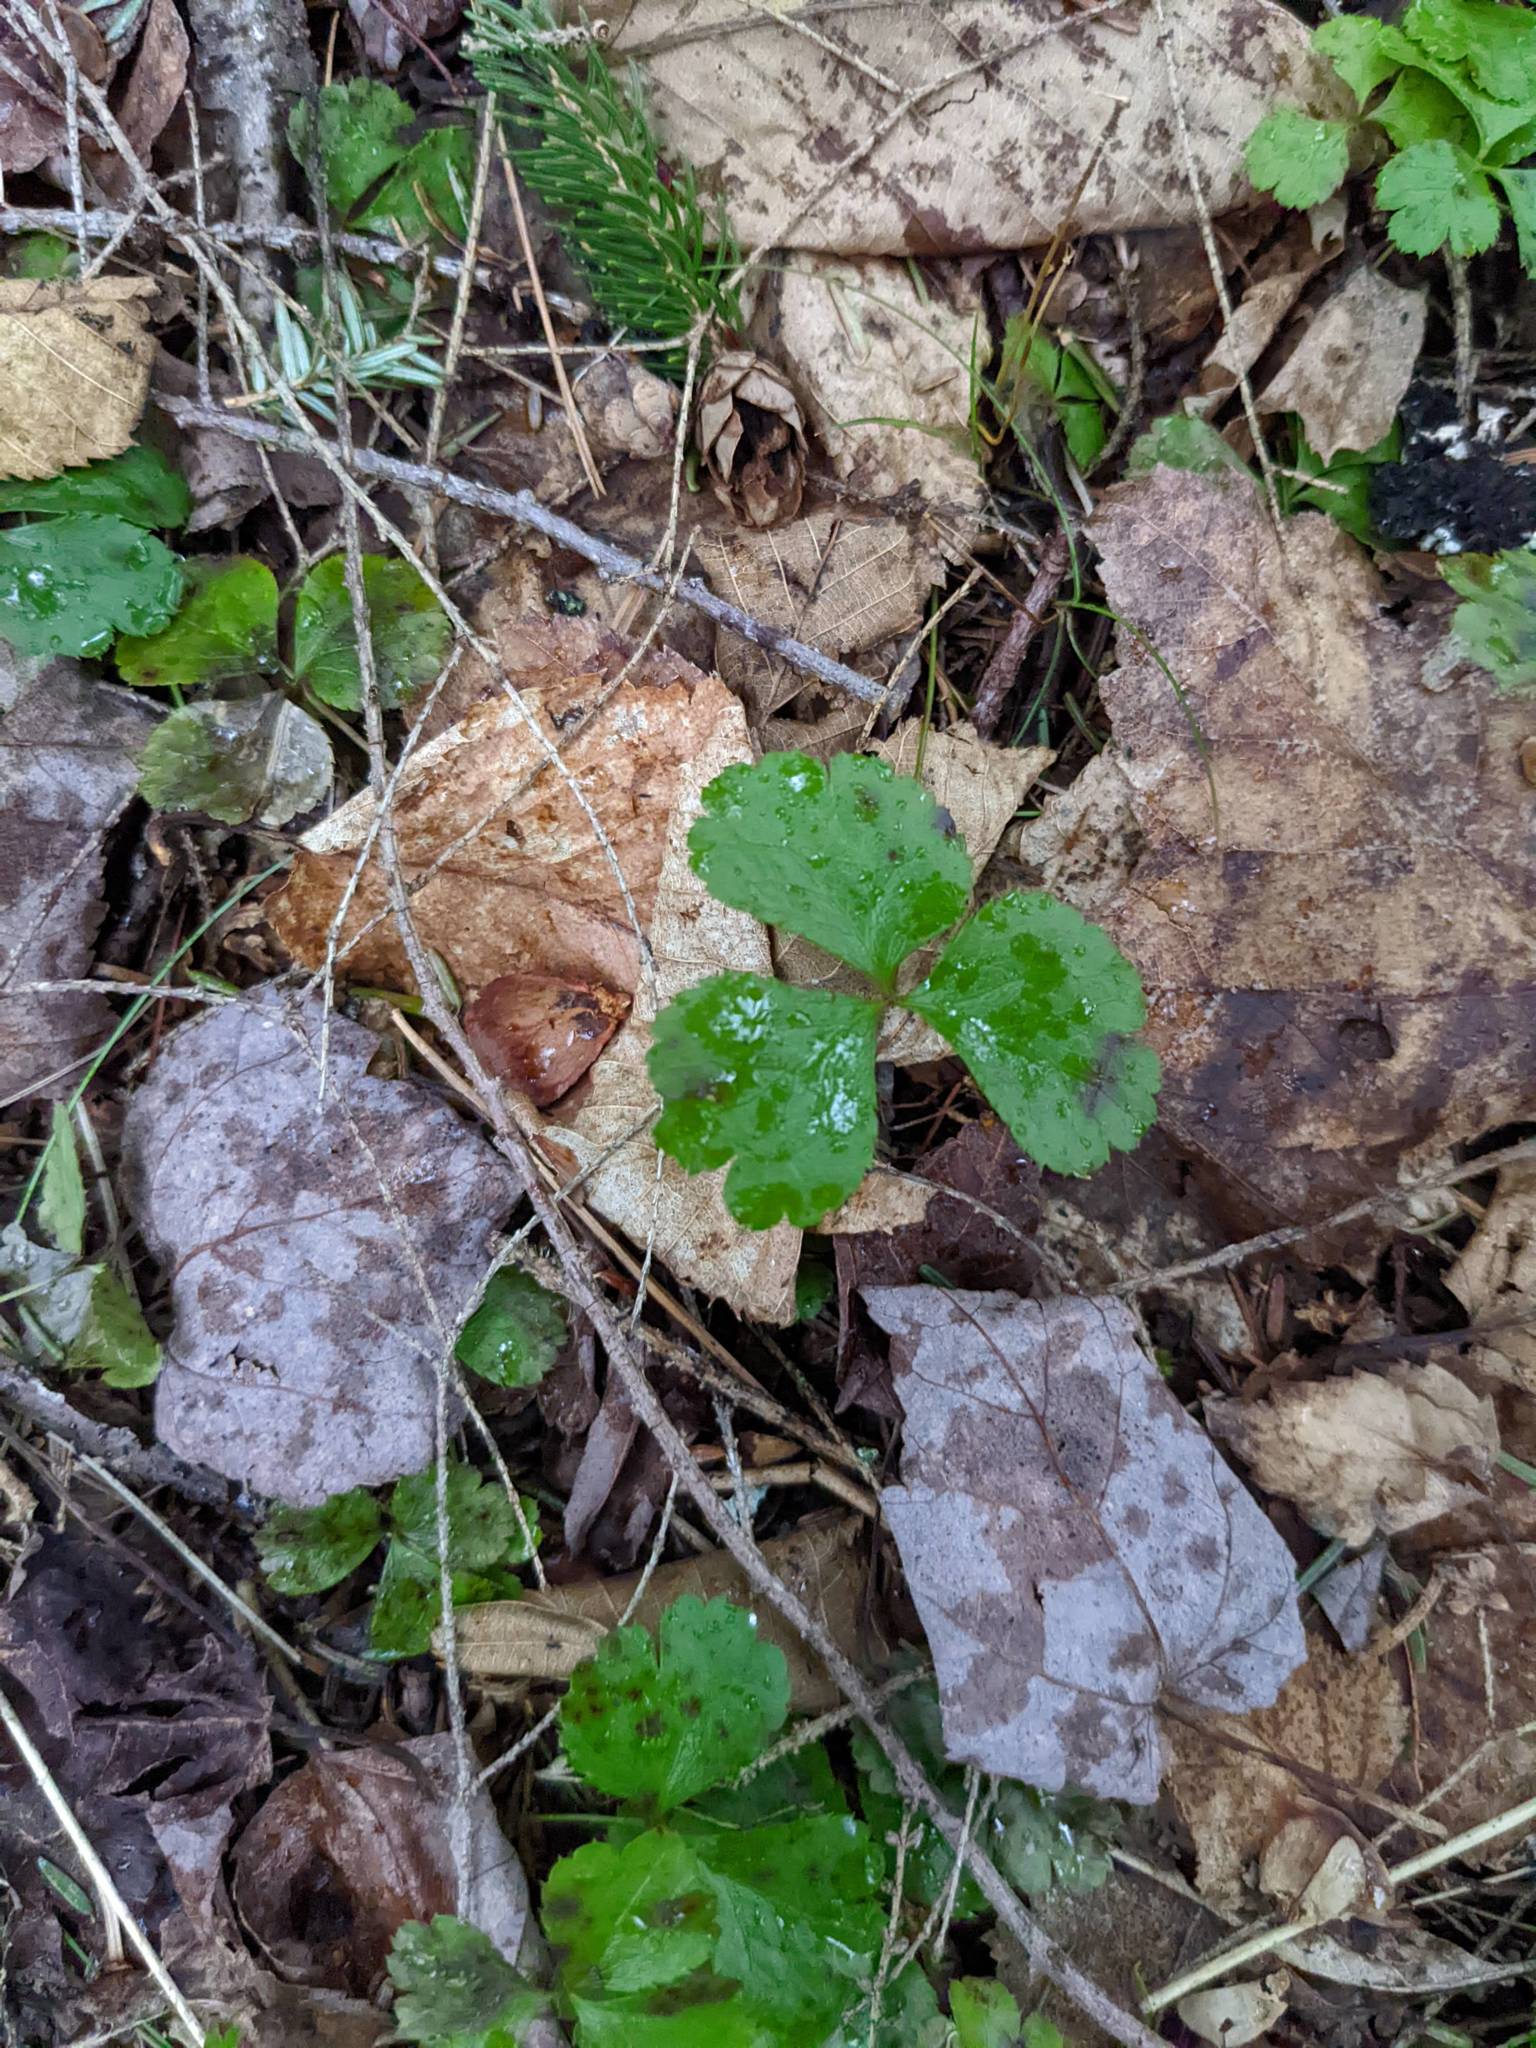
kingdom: Plantae
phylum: Tracheophyta
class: Magnoliopsida
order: Ranunculales
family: Ranunculaceae
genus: Coptis
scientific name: Coptis trifolia
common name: Canker-root
